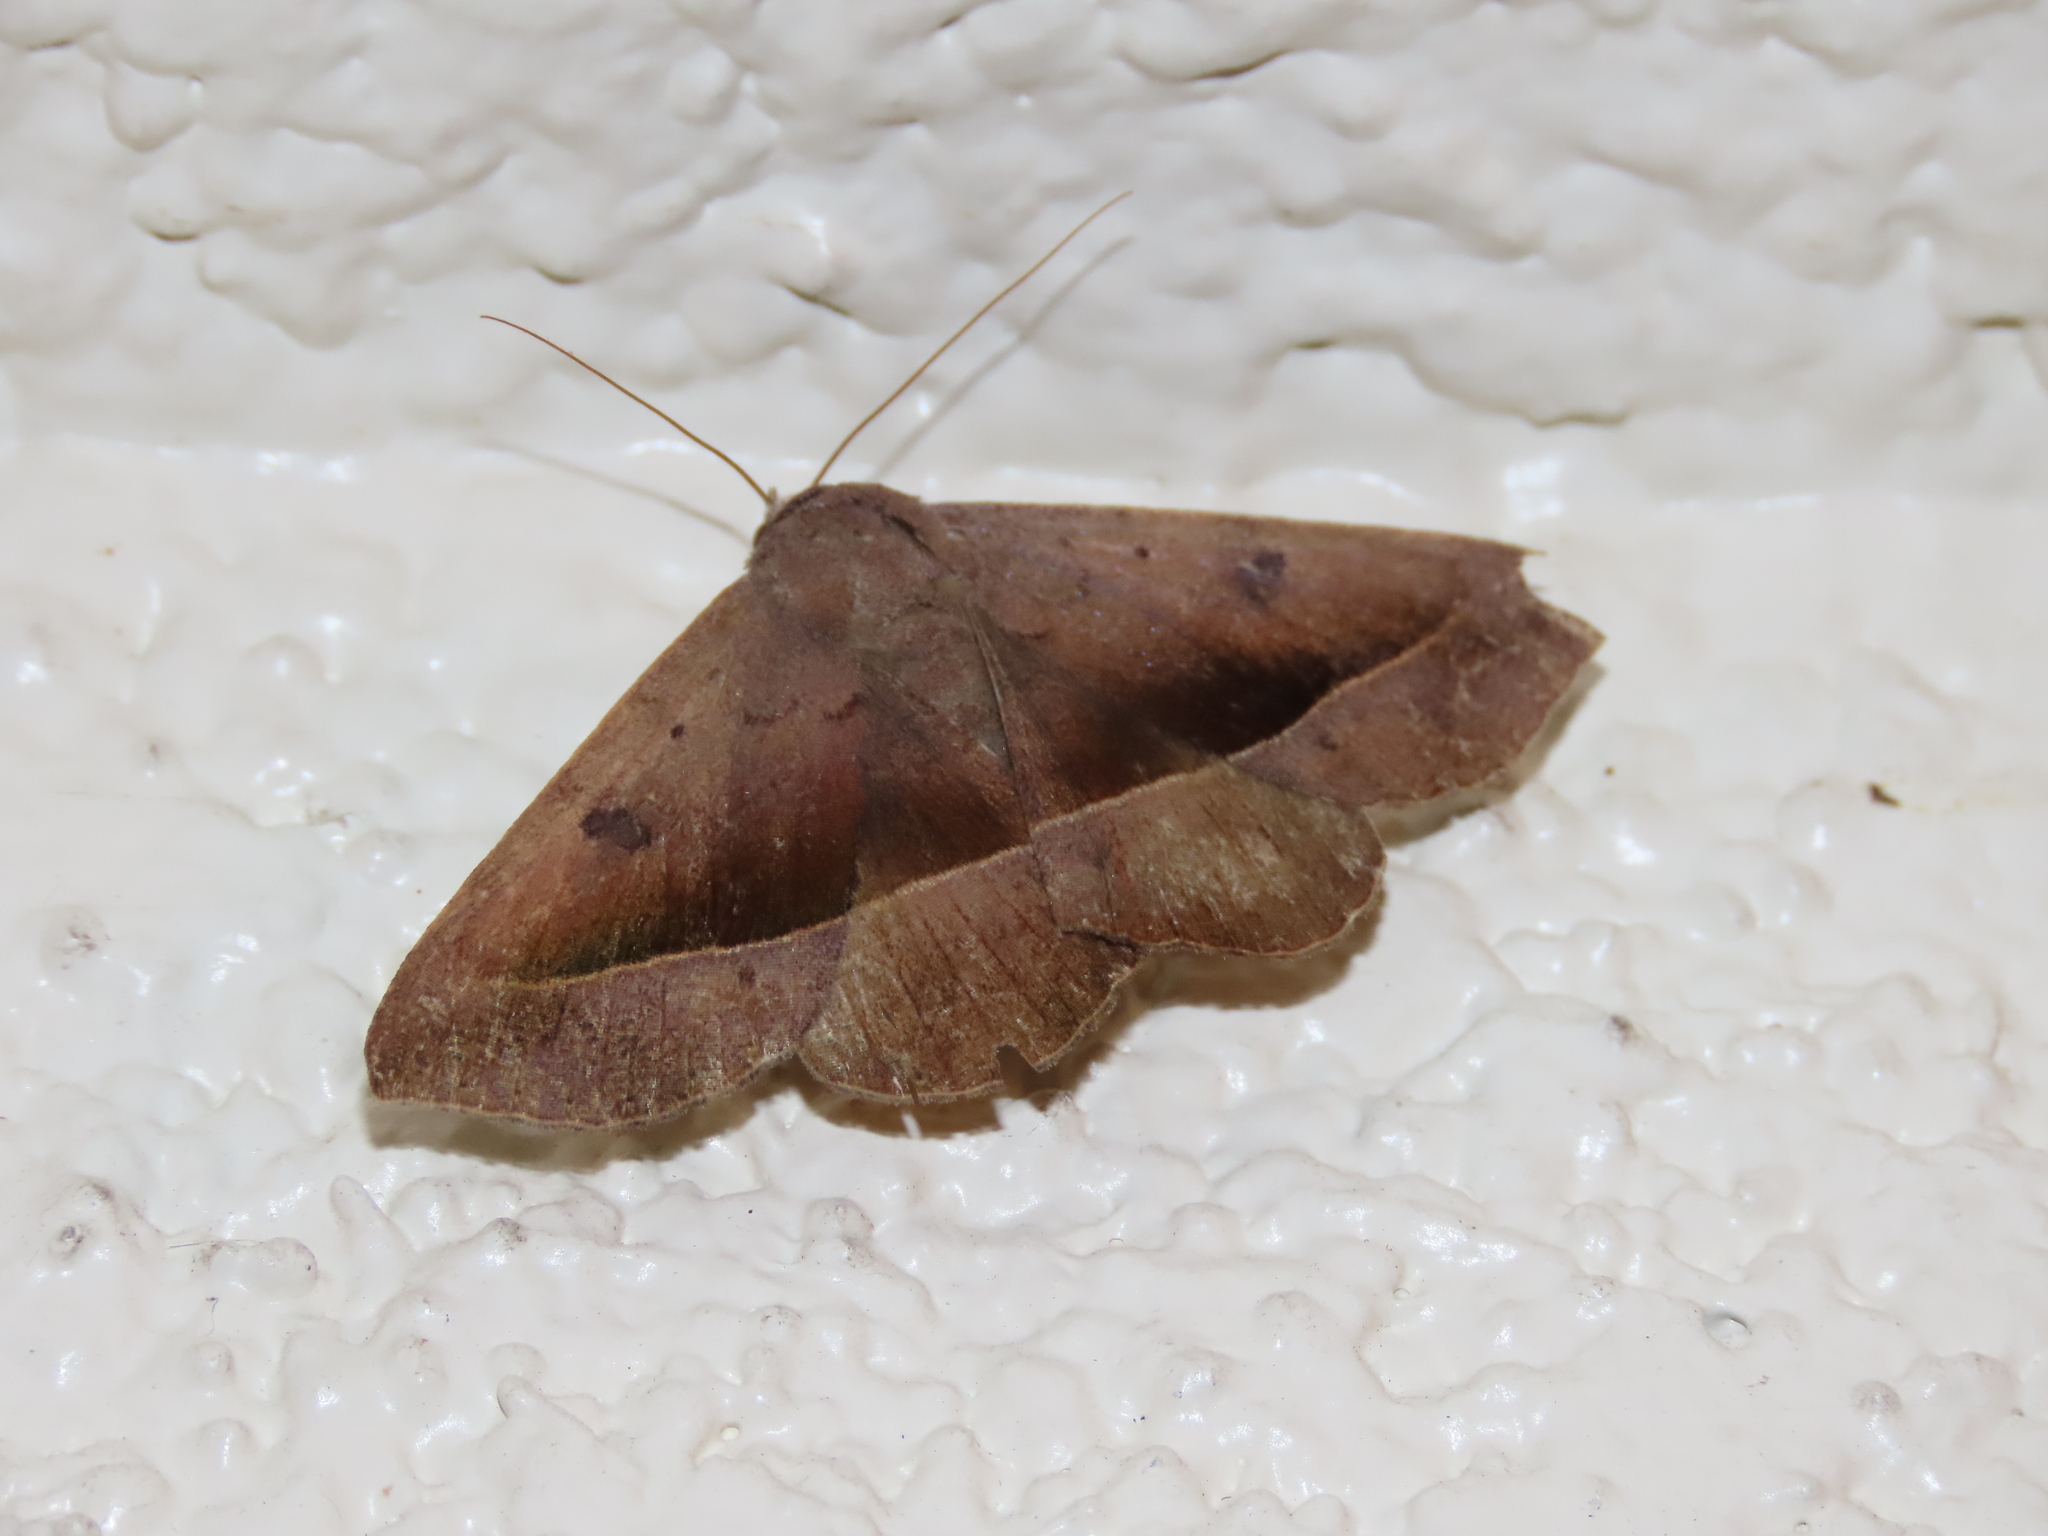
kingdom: Animalia
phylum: Arthropoda
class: Insecta
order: Lepidoptera
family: Erebidae
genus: Epidromia
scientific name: Epidromia rotundata
